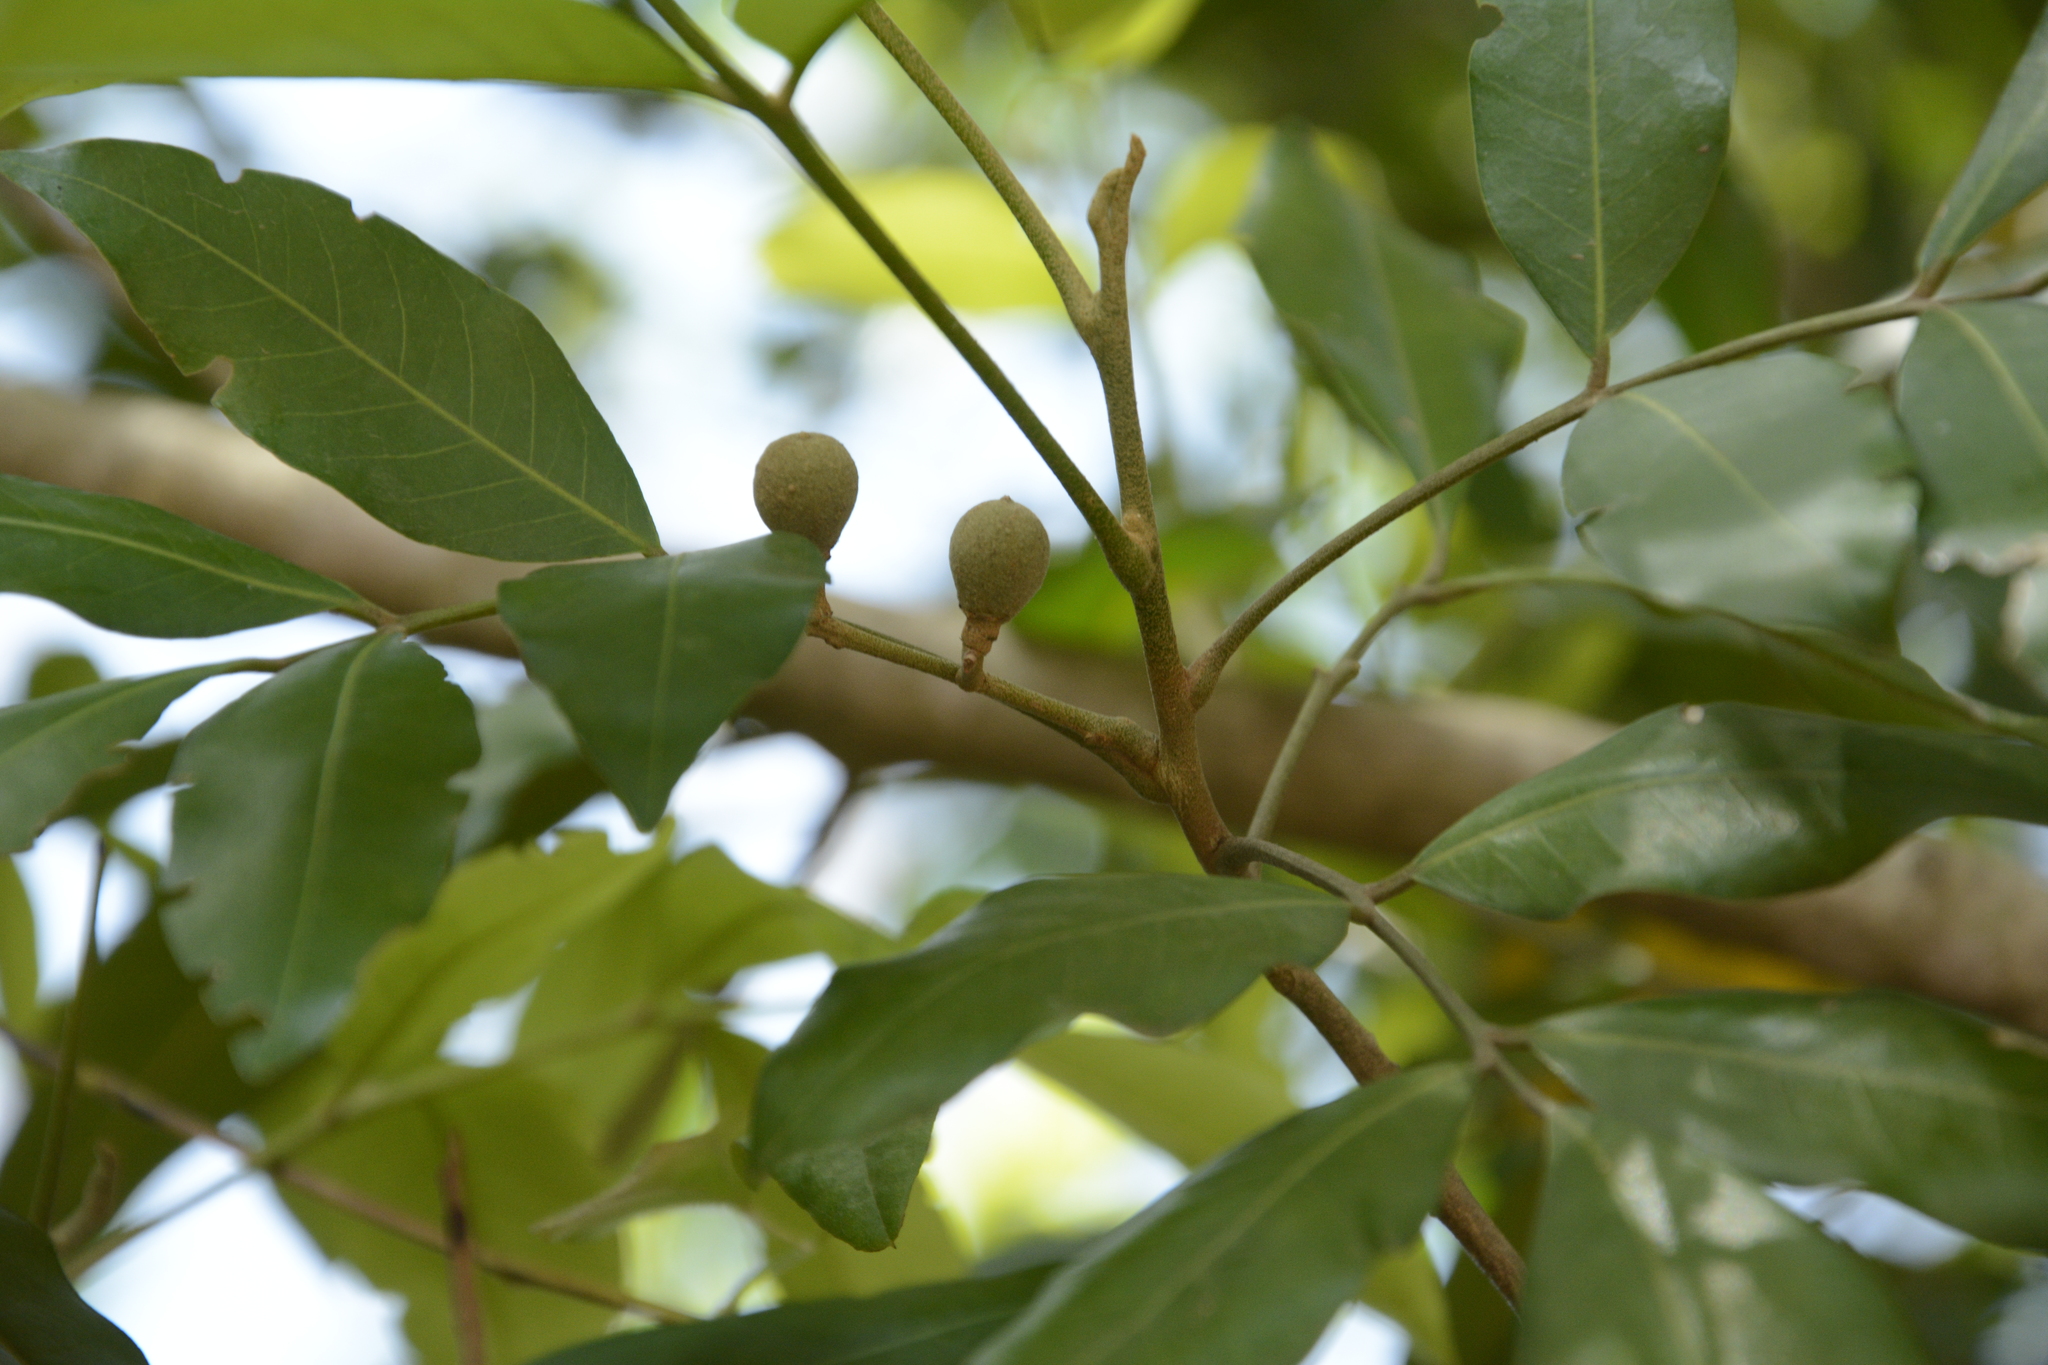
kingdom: Plantae
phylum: Tracheophyta
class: Magnoliopsida
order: Sapindales
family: Meliaceae
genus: Aglaia
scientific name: Aglaia elaeagnoidea
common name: Droopyleaf
